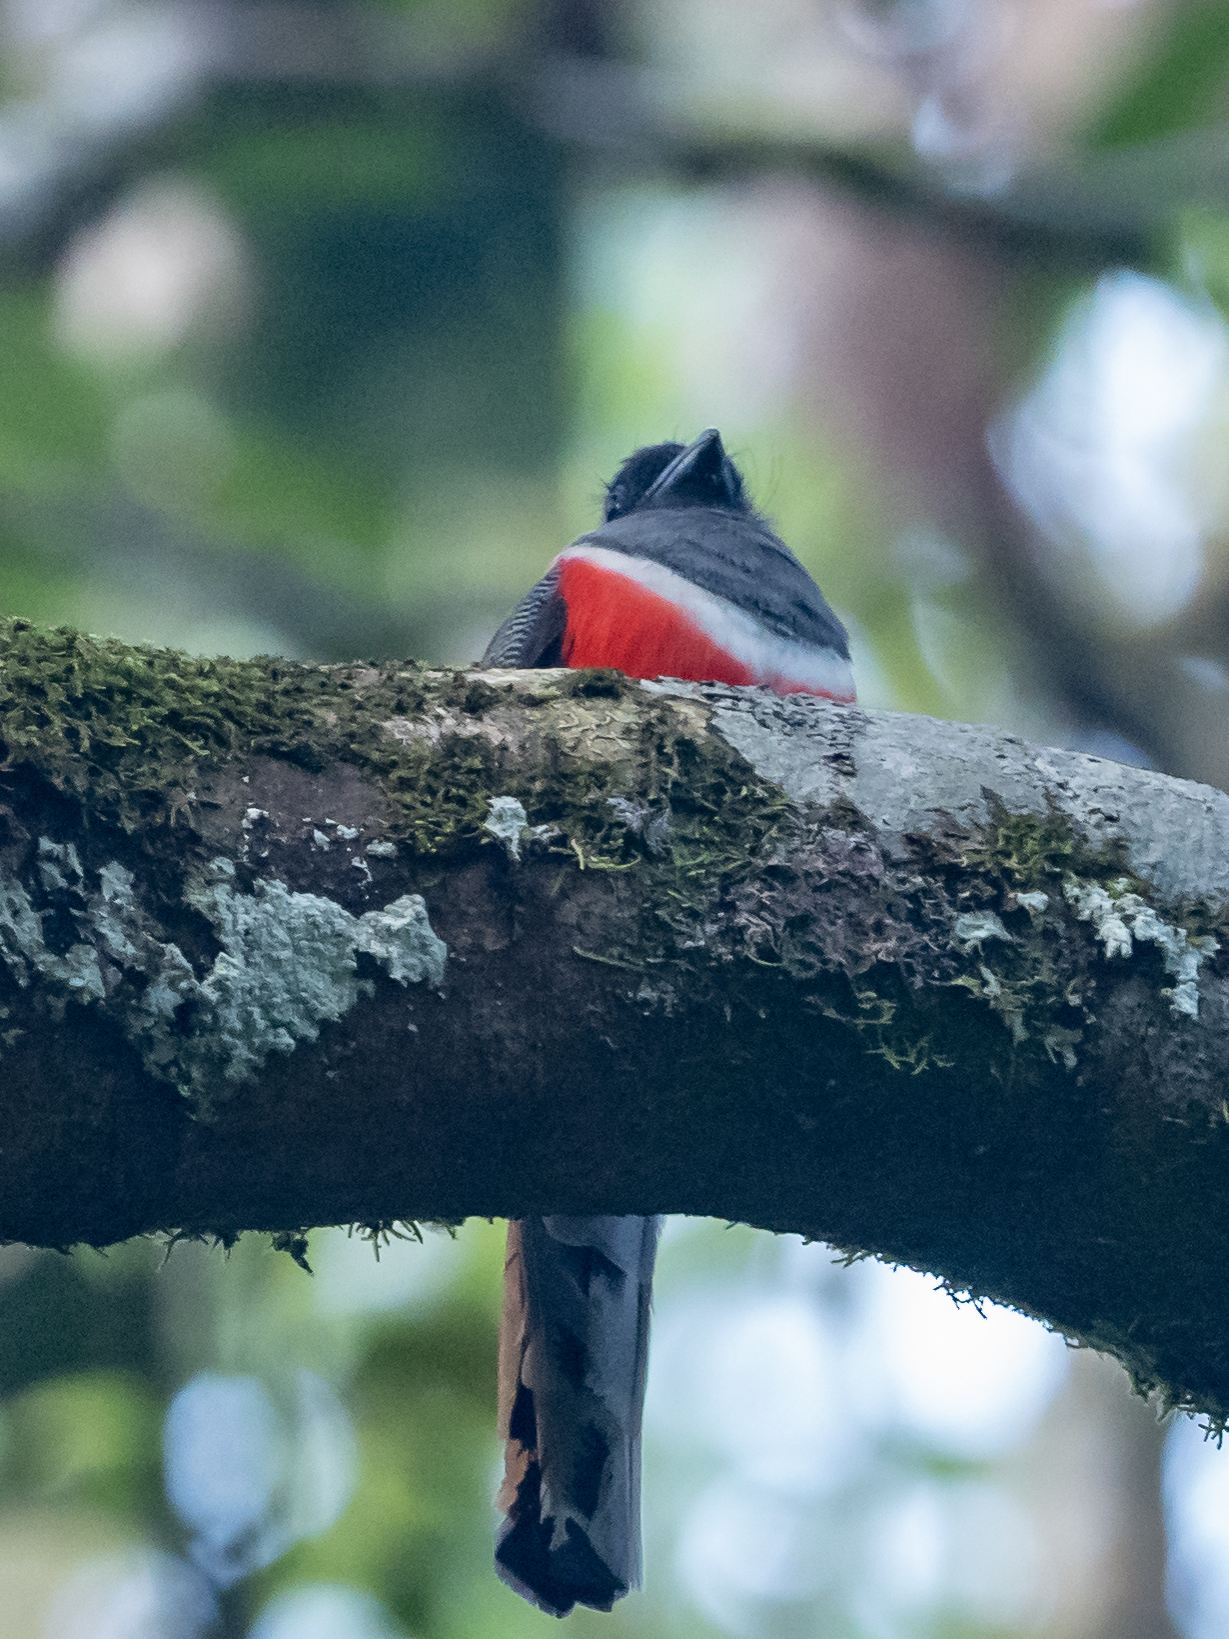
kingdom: Animalia
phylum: Chordata
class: Aves
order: Trogoniformes
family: Trogonidae
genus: Harpactes
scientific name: Harpactes fasciatus
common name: Malabar trogon
